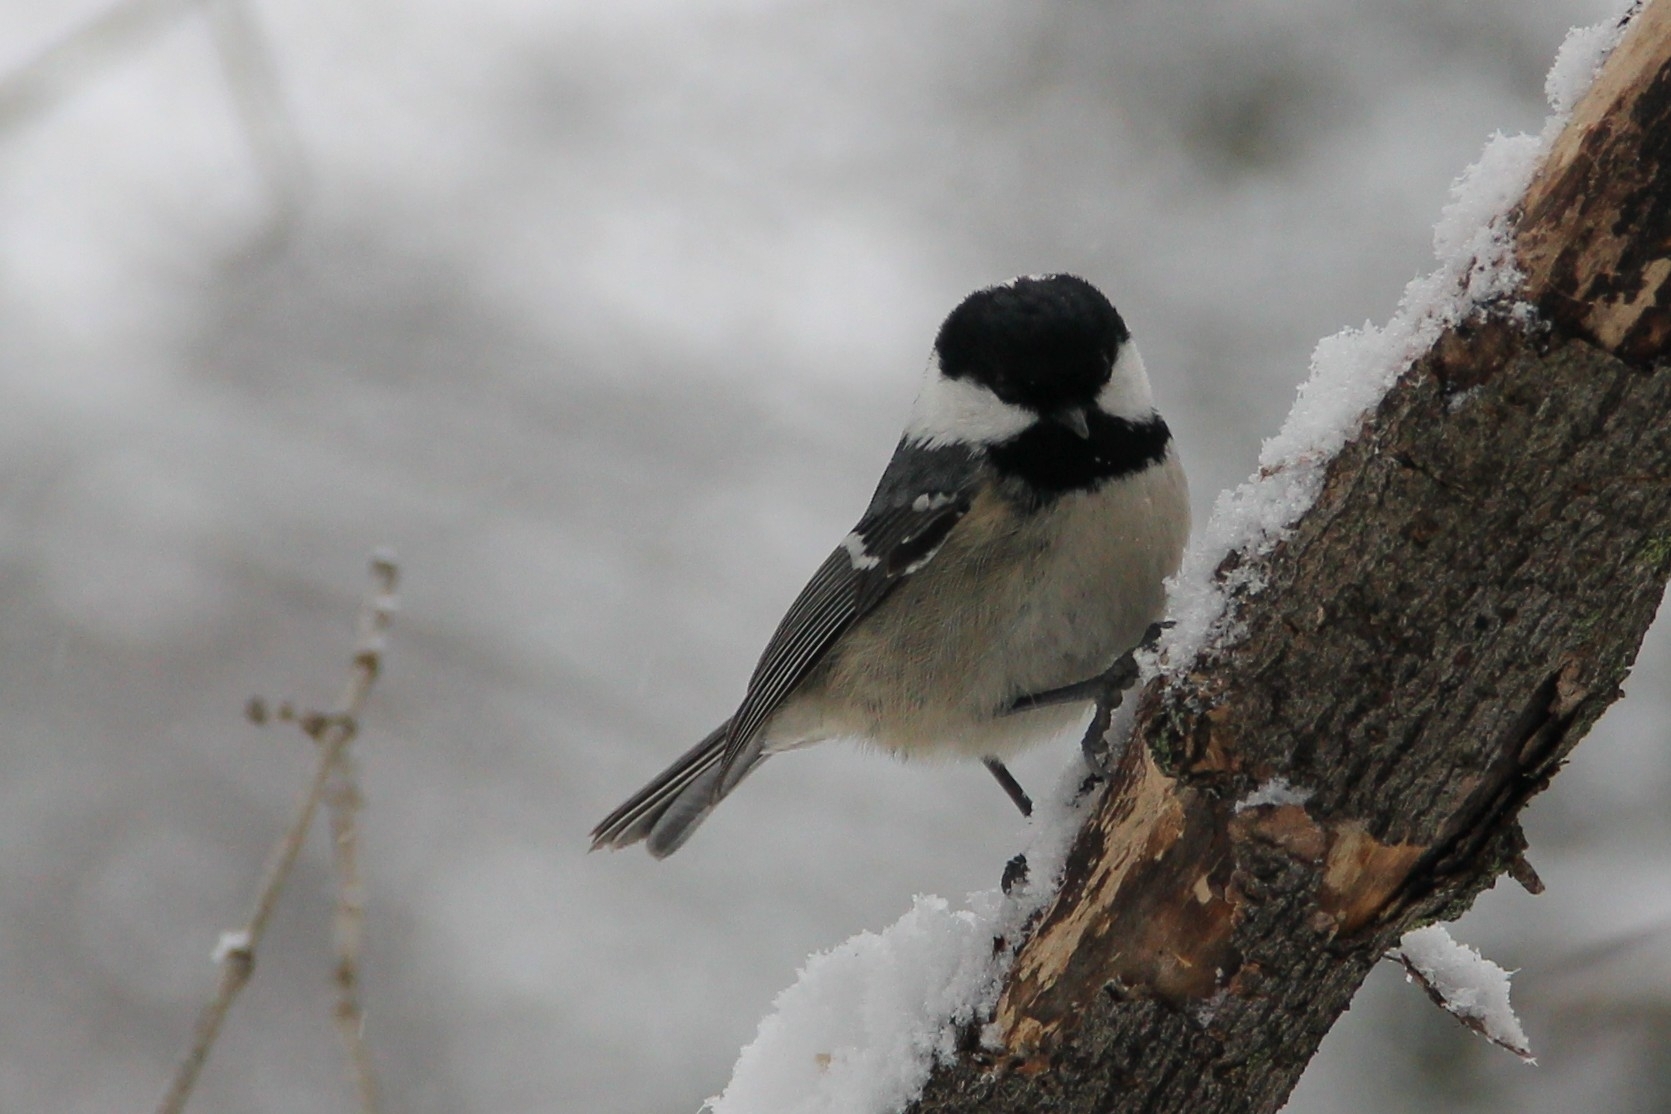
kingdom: Animalia
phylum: Chordata
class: Aves
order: Passeriformes
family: Paridae
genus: Periparus
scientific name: Periparus ater
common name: Coal tit
